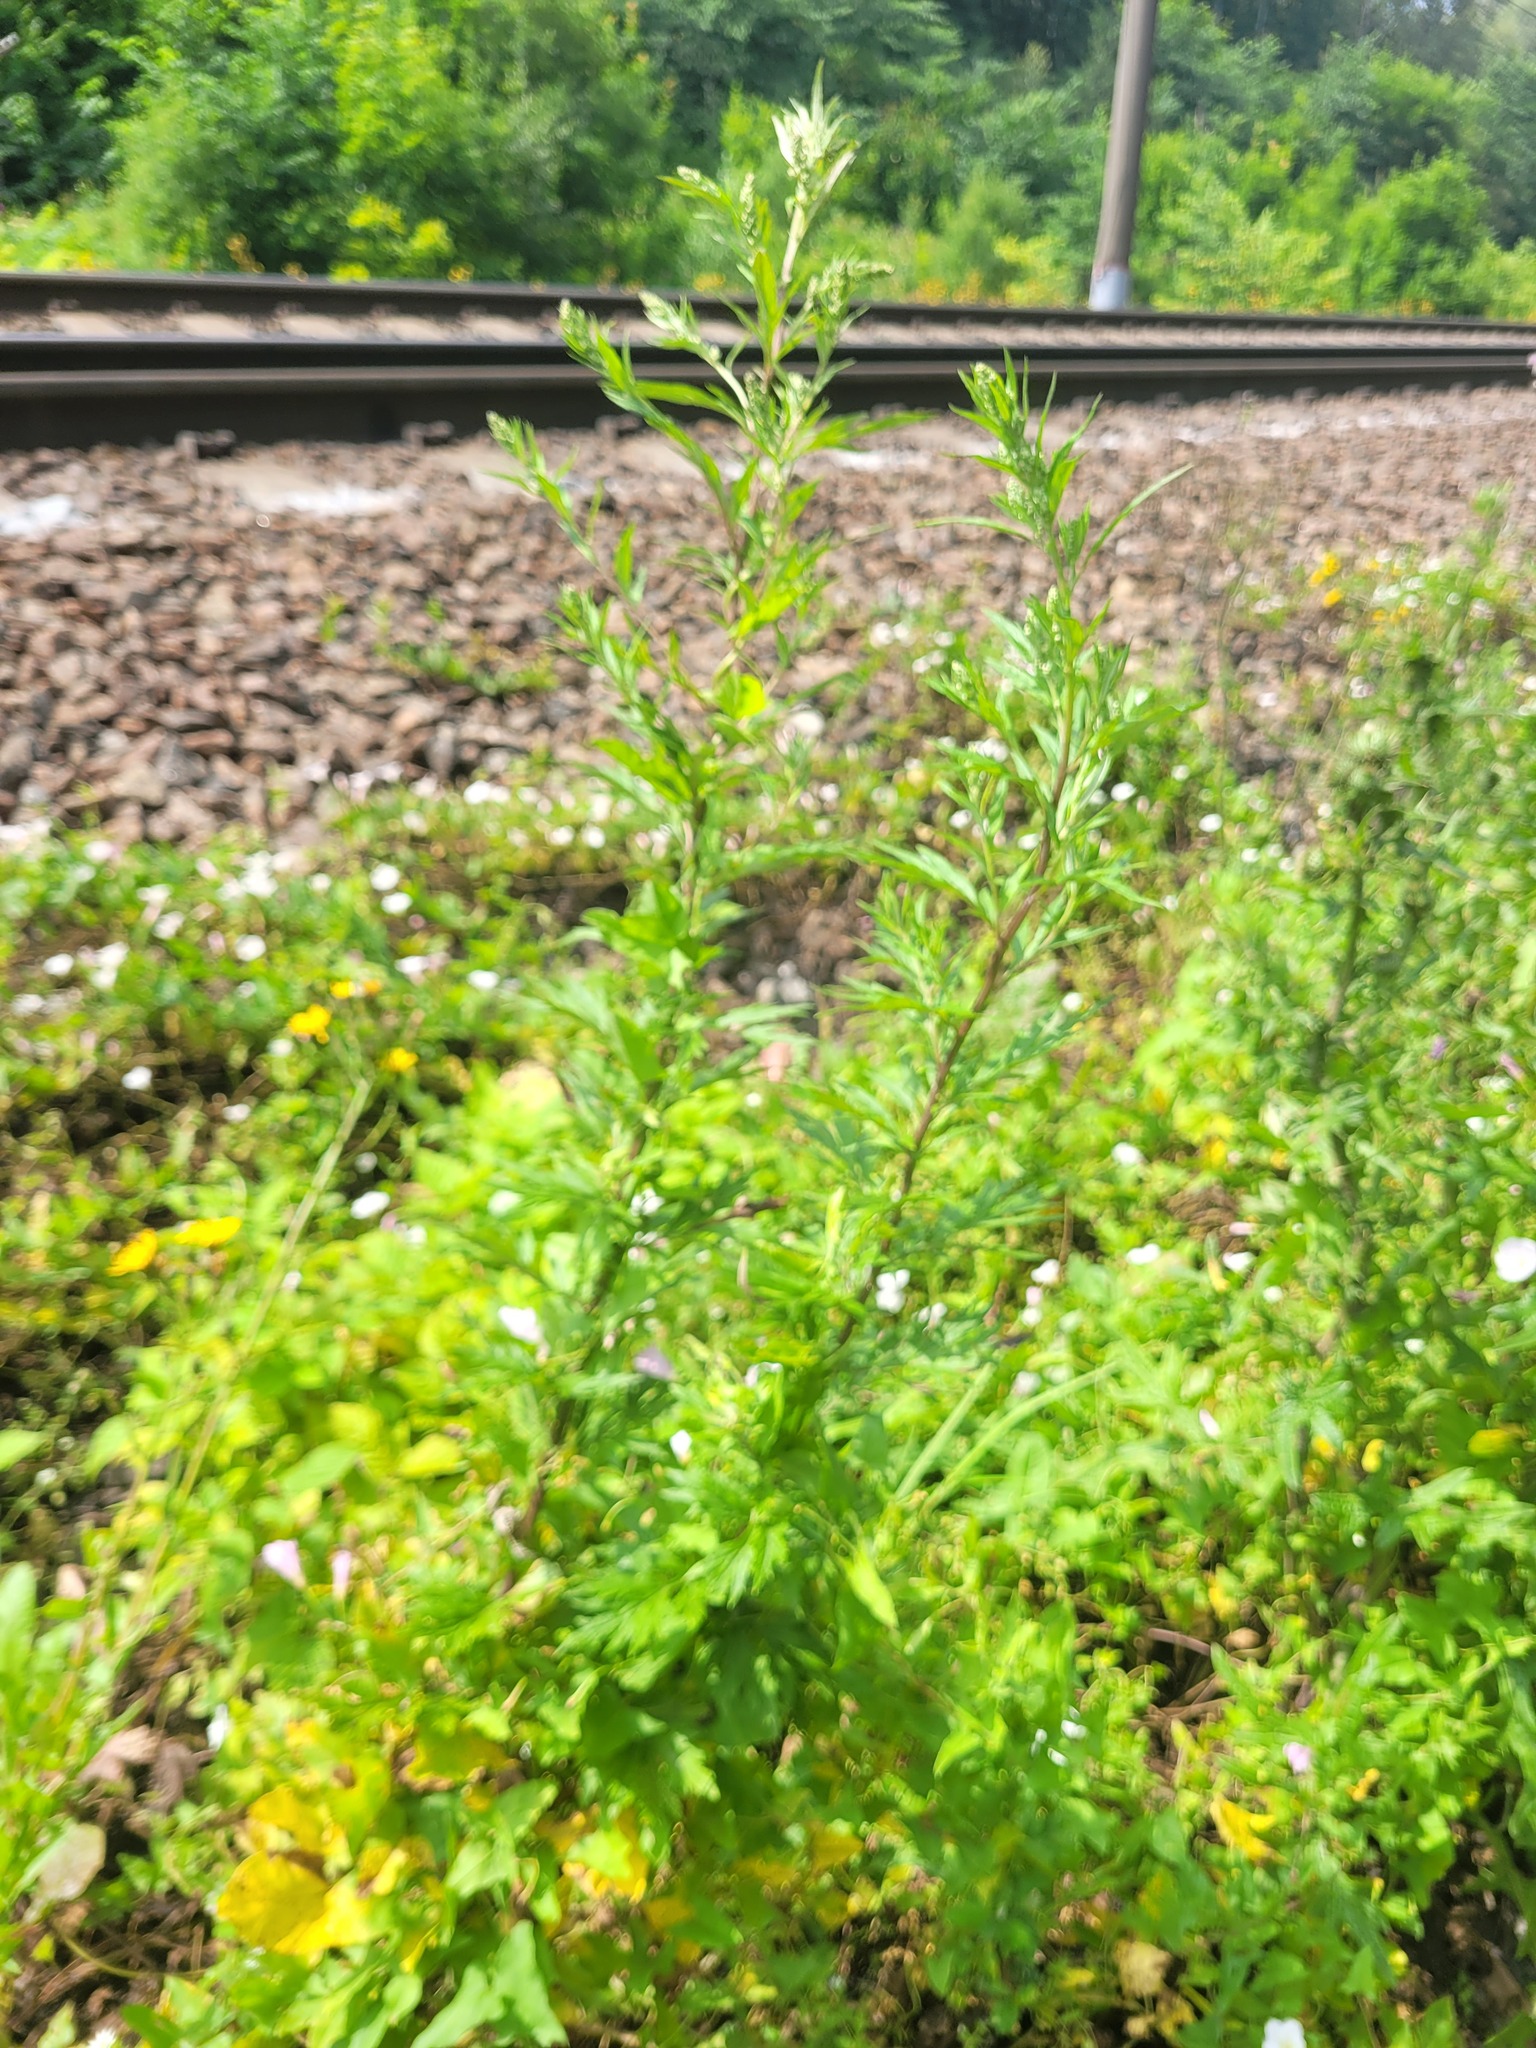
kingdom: Plantae
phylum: Tracheophyta
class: Magnoliopsida
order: Asterales
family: Asteraceae
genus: Artemisia
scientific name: Artemisia vulgaris
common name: Mugwort
